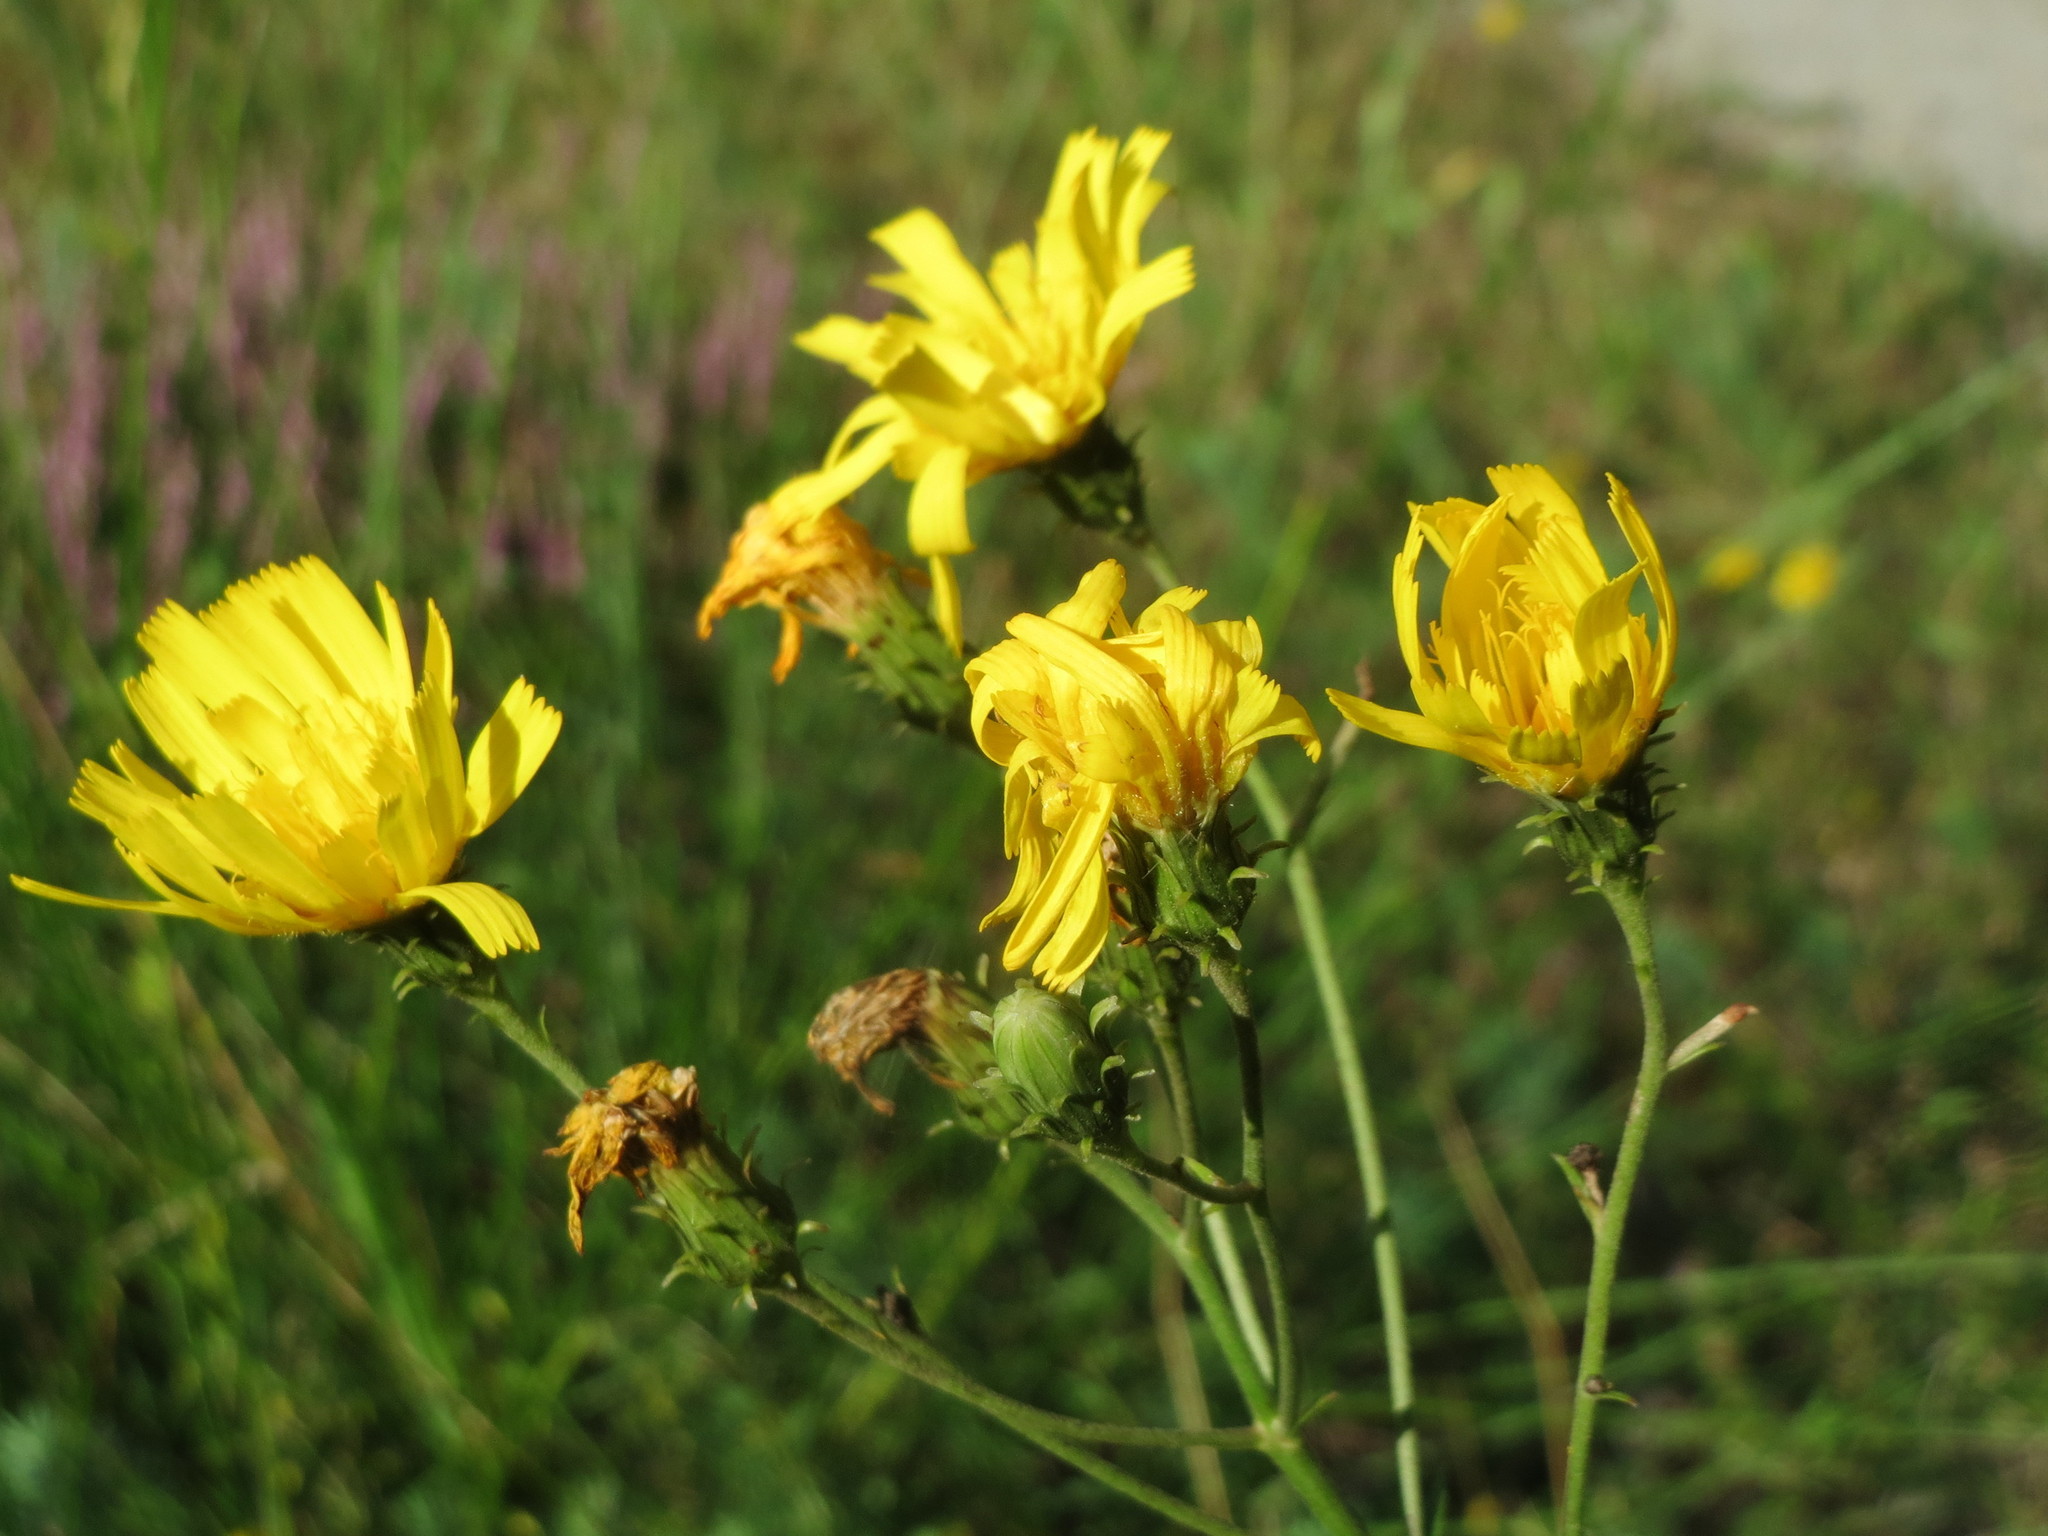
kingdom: Plantae
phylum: Tracheophyta
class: Magnoliopsida
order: Asterales
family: Asteraceae
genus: Hieracium
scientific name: Hieracium umbellatum
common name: Northern hawkweed
